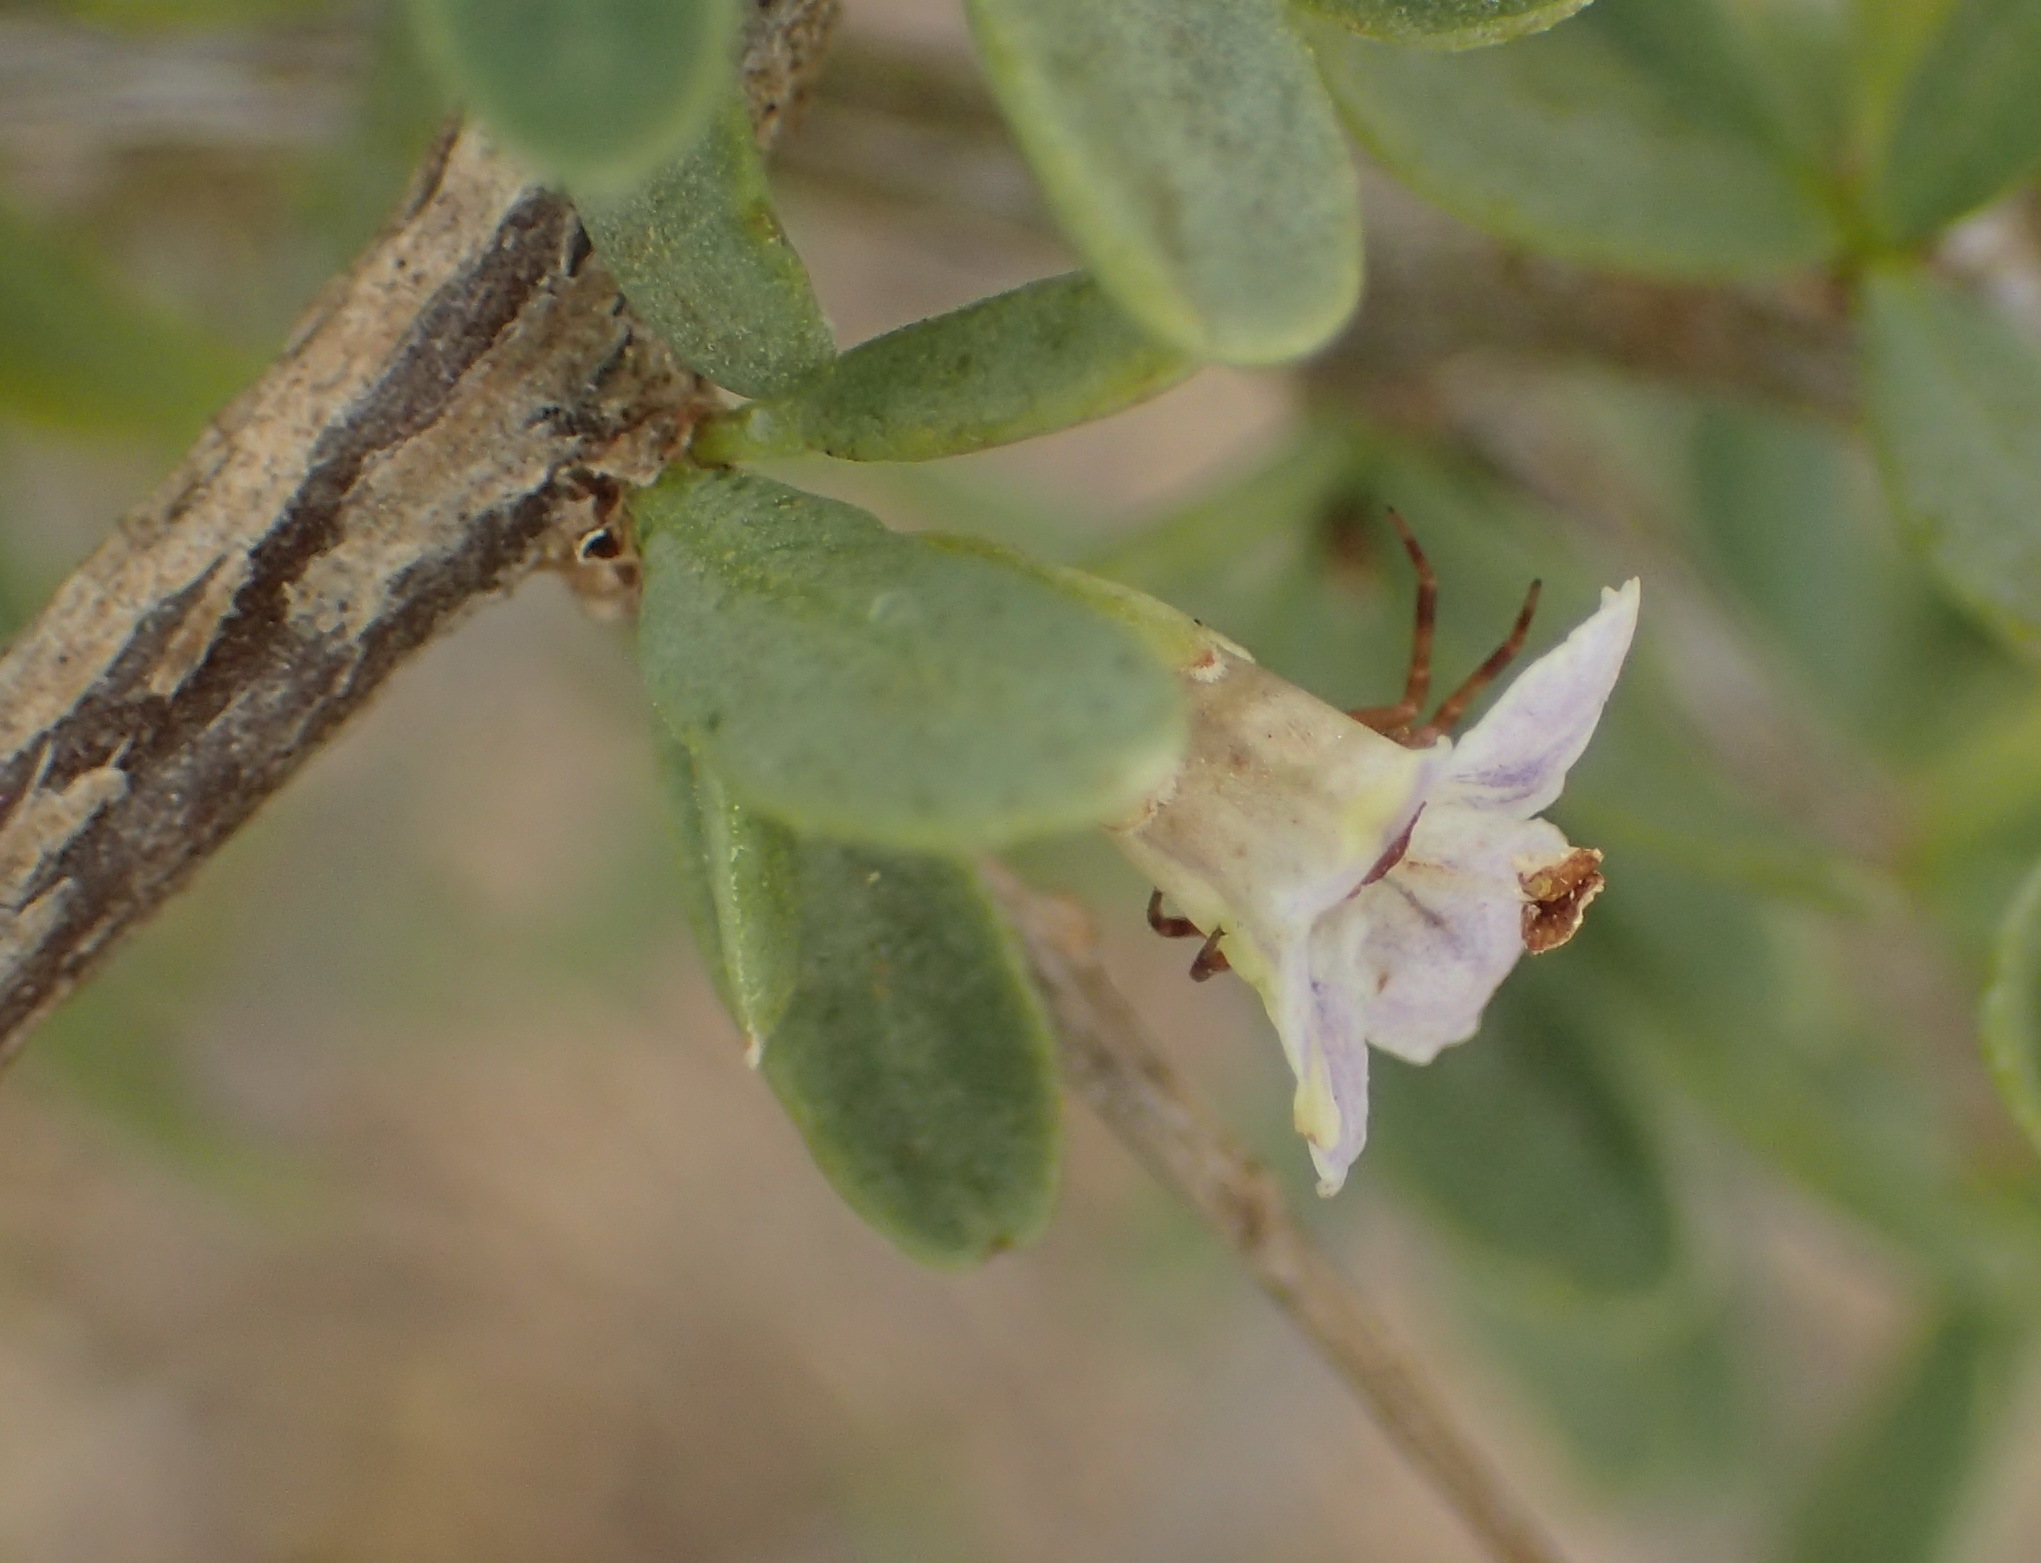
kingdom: Plantae
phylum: Tracheophyta
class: Magnoliopsida
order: Solanales
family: Solanaceae
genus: Lycium
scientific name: Lycium horridum
